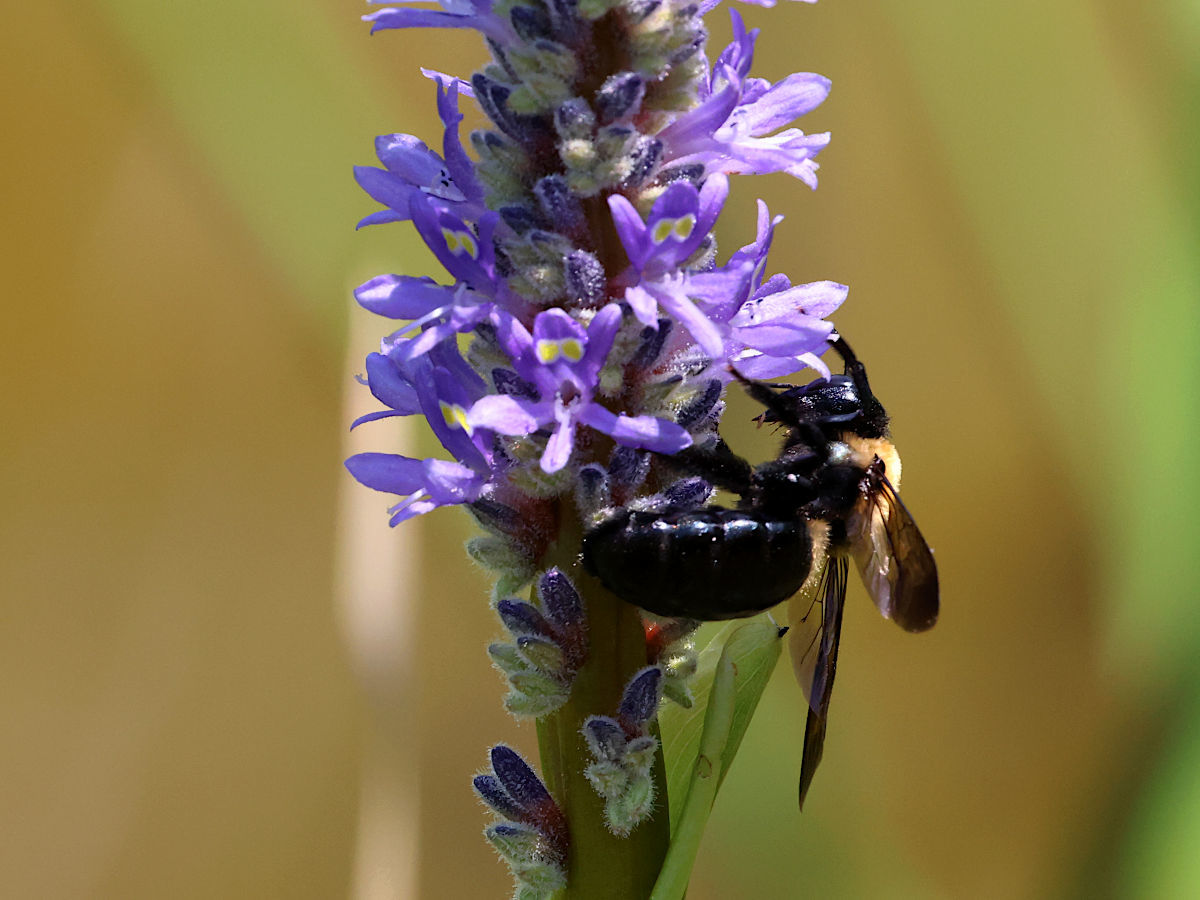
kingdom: Animalia
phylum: Arthropoda
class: Insecta
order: Hymenoptera
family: Apidae
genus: Xylocopa
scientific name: Xylocopa virginica
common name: Carpenter bee
